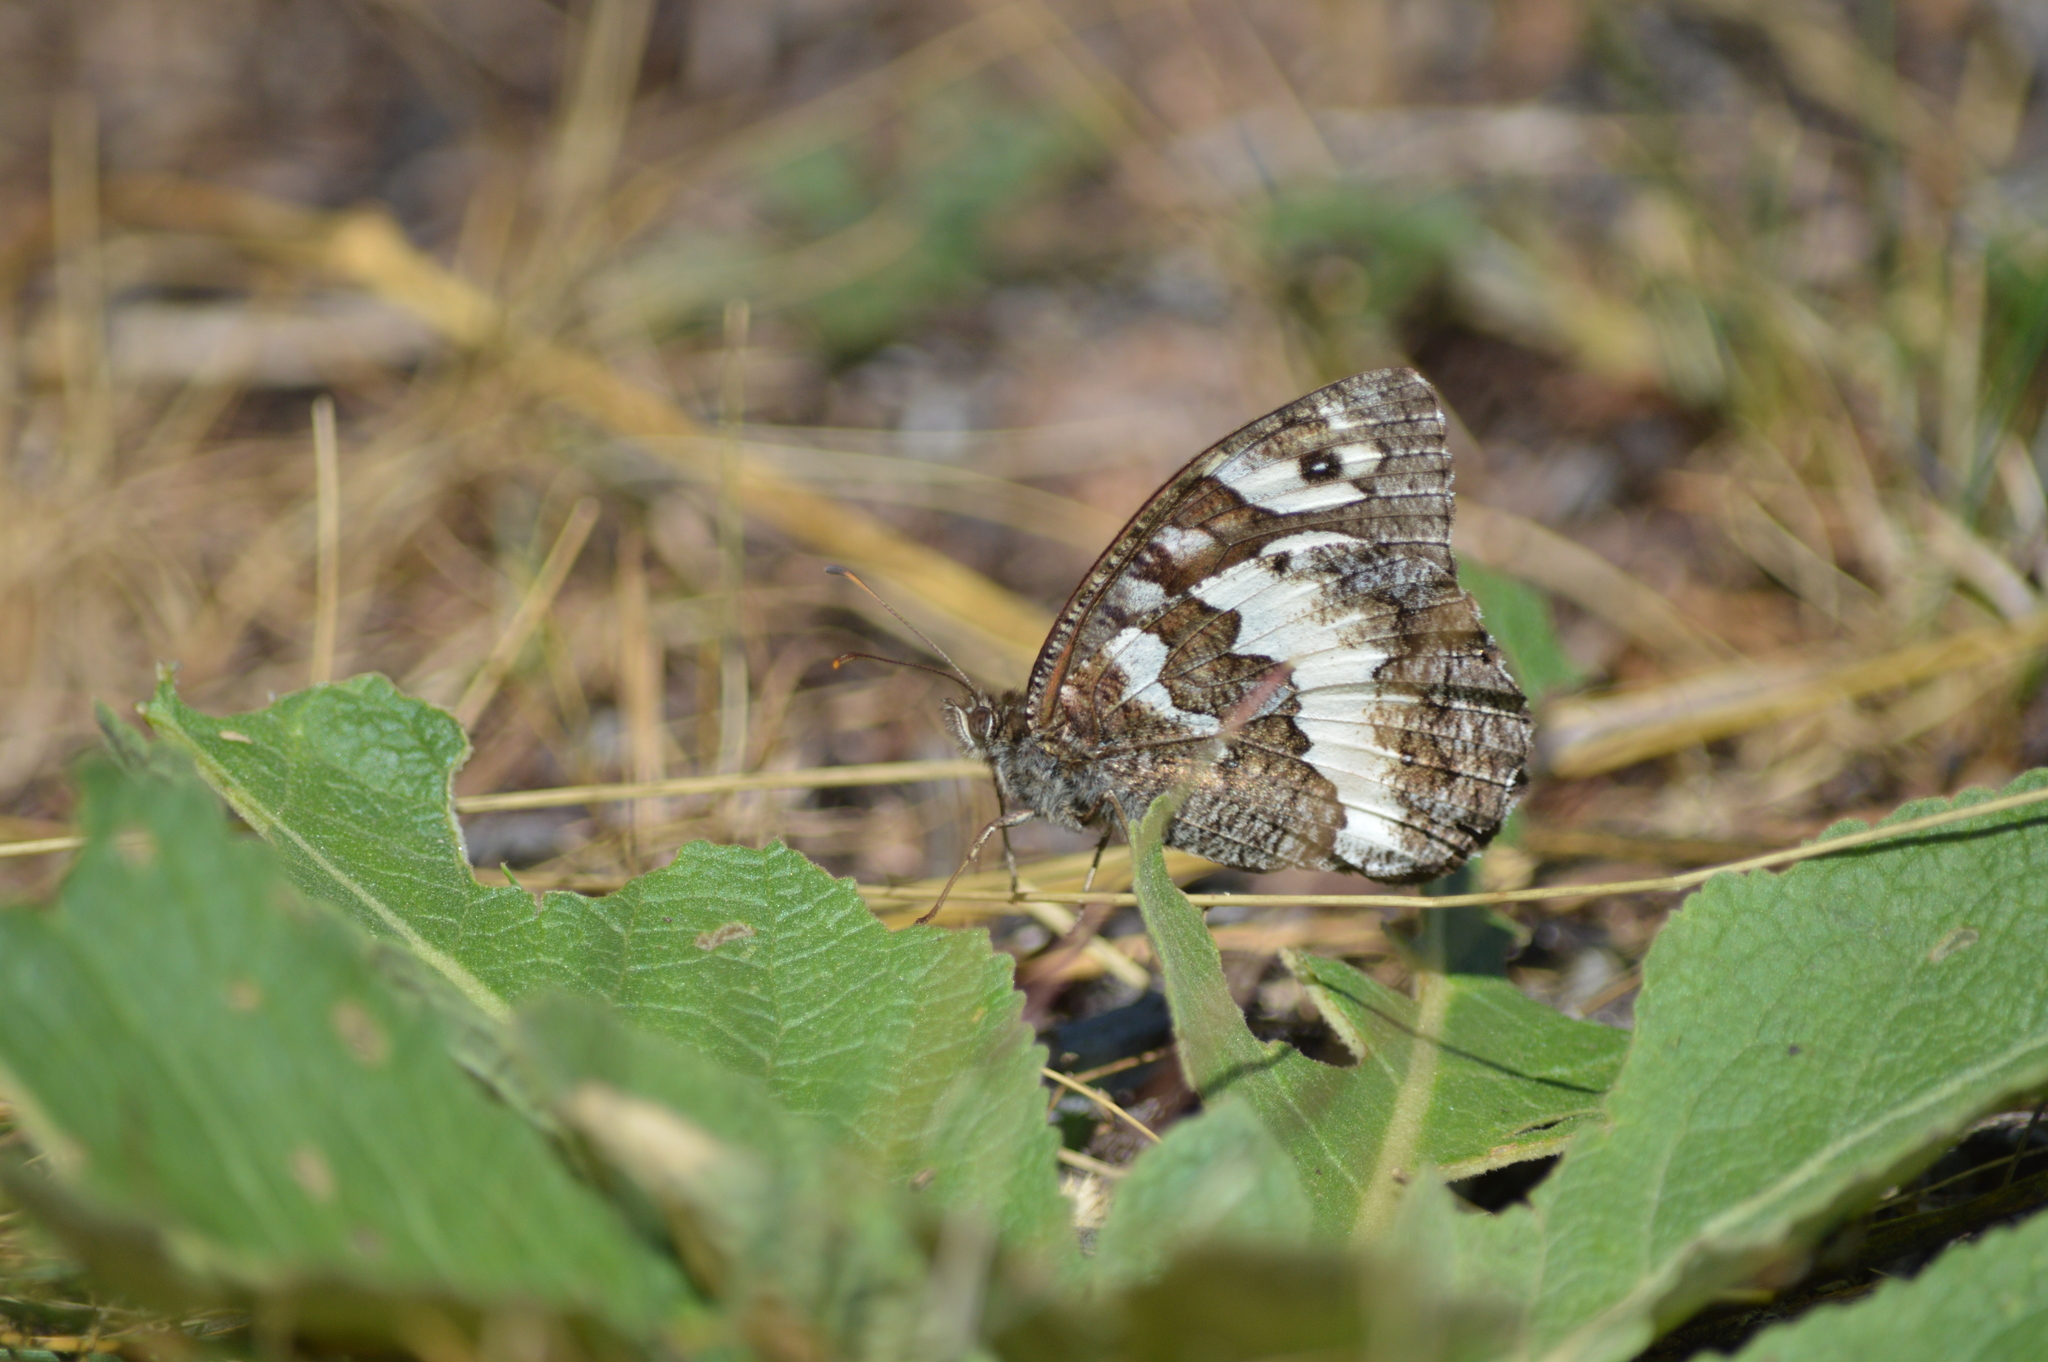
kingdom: Animalia
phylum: Arthropoda
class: Insecta
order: Lepidoptera
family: Lycaenidae
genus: Loweia
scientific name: Loweia tityrus
